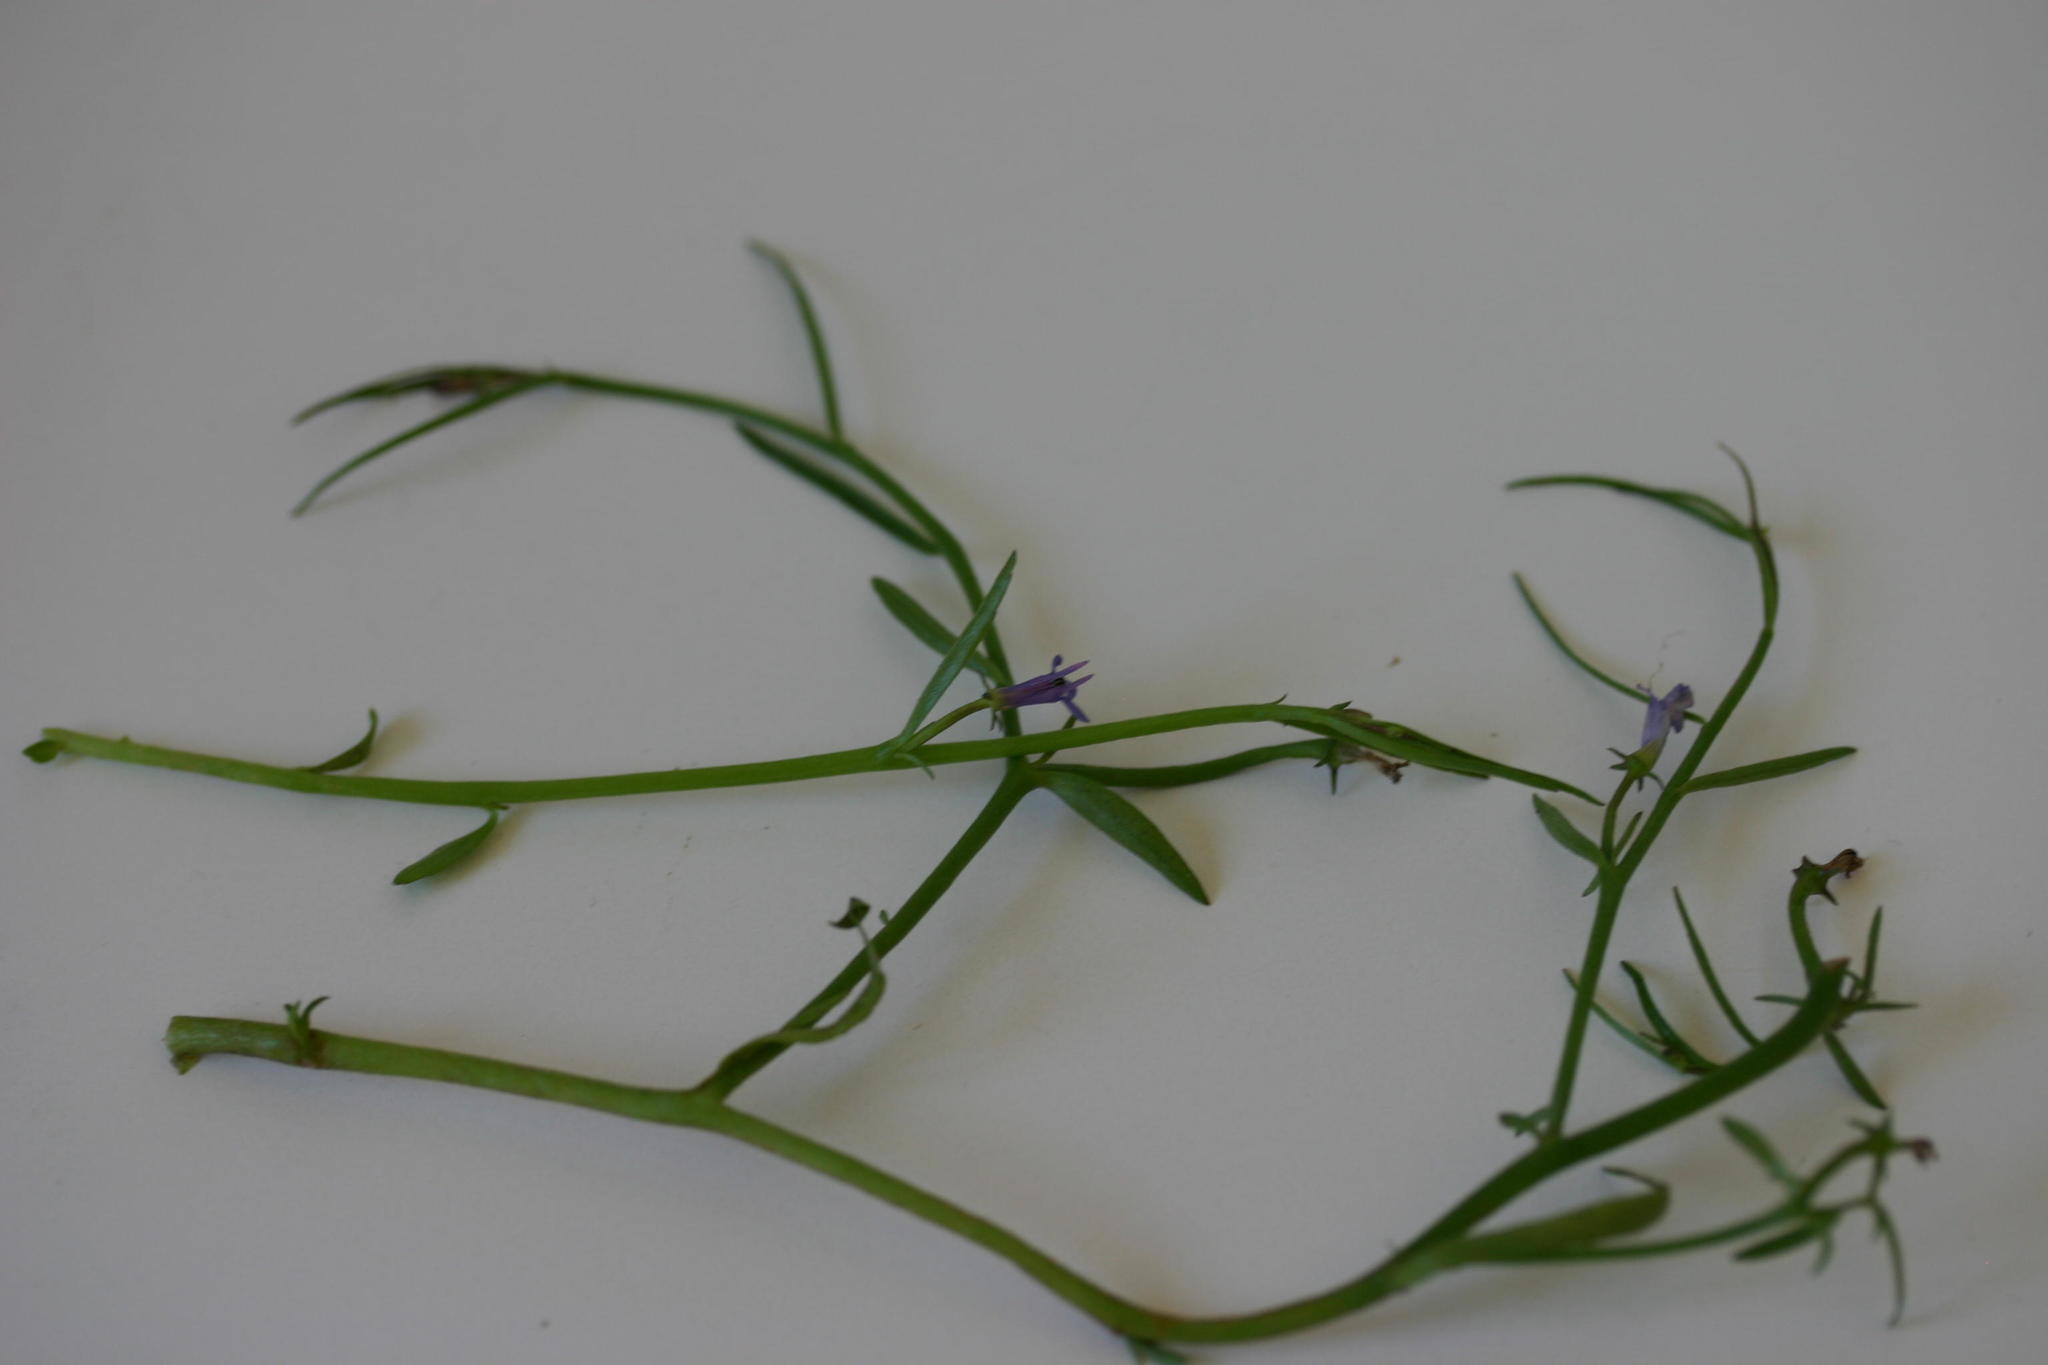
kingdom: Plantae
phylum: Tracheophyta
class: Magnoliopsida
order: Asterales
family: Campanulaceae
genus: Grammatotheca
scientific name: Grammatotheca bergiana
